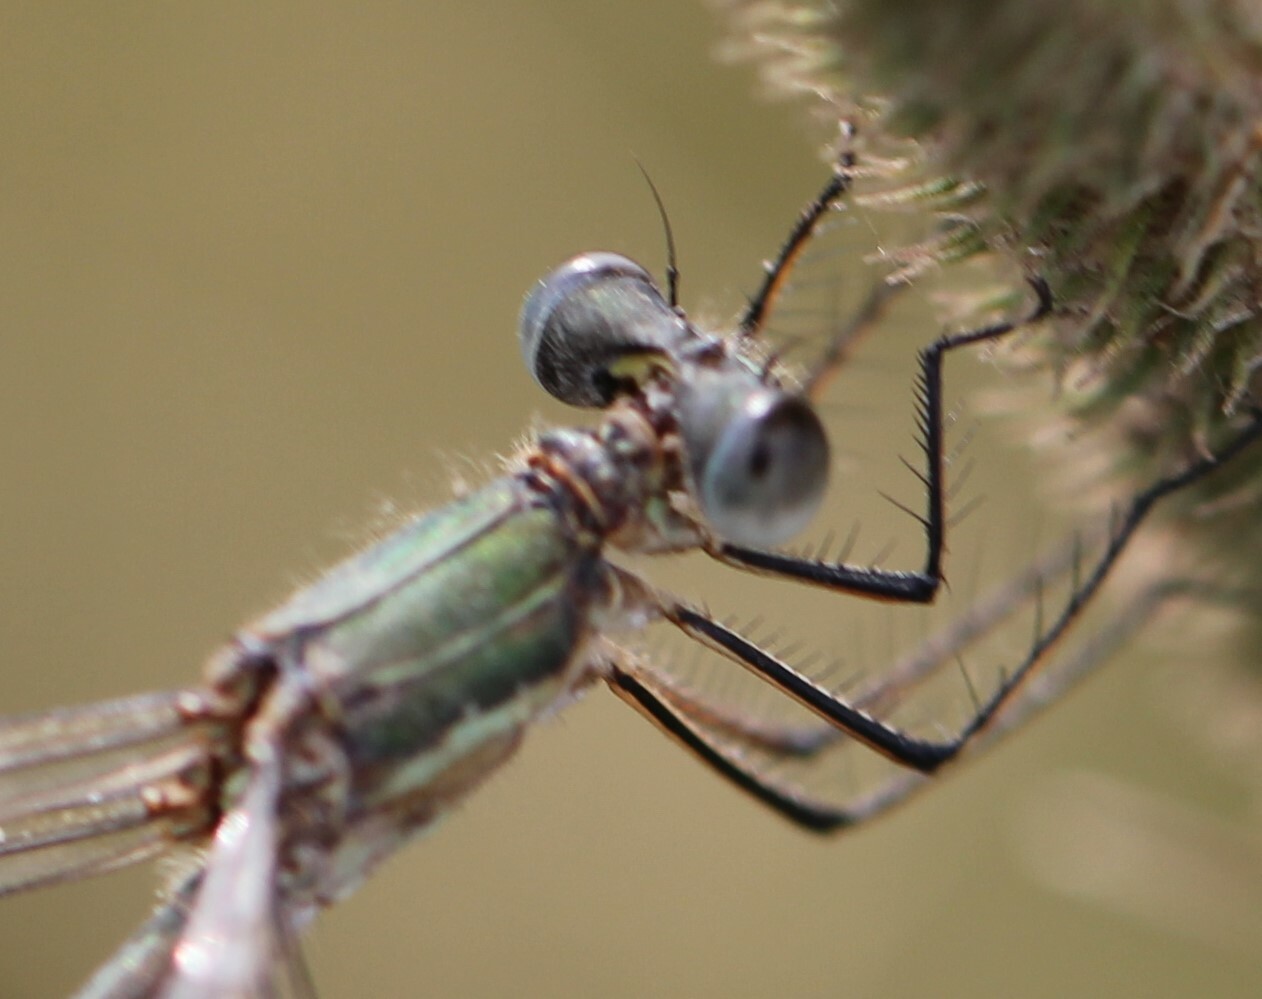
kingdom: Animalia
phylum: Arthropoda
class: Insecta
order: Odonata
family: Lestidae
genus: Lestes
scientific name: Lestes sponsa
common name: Common spreadwing
